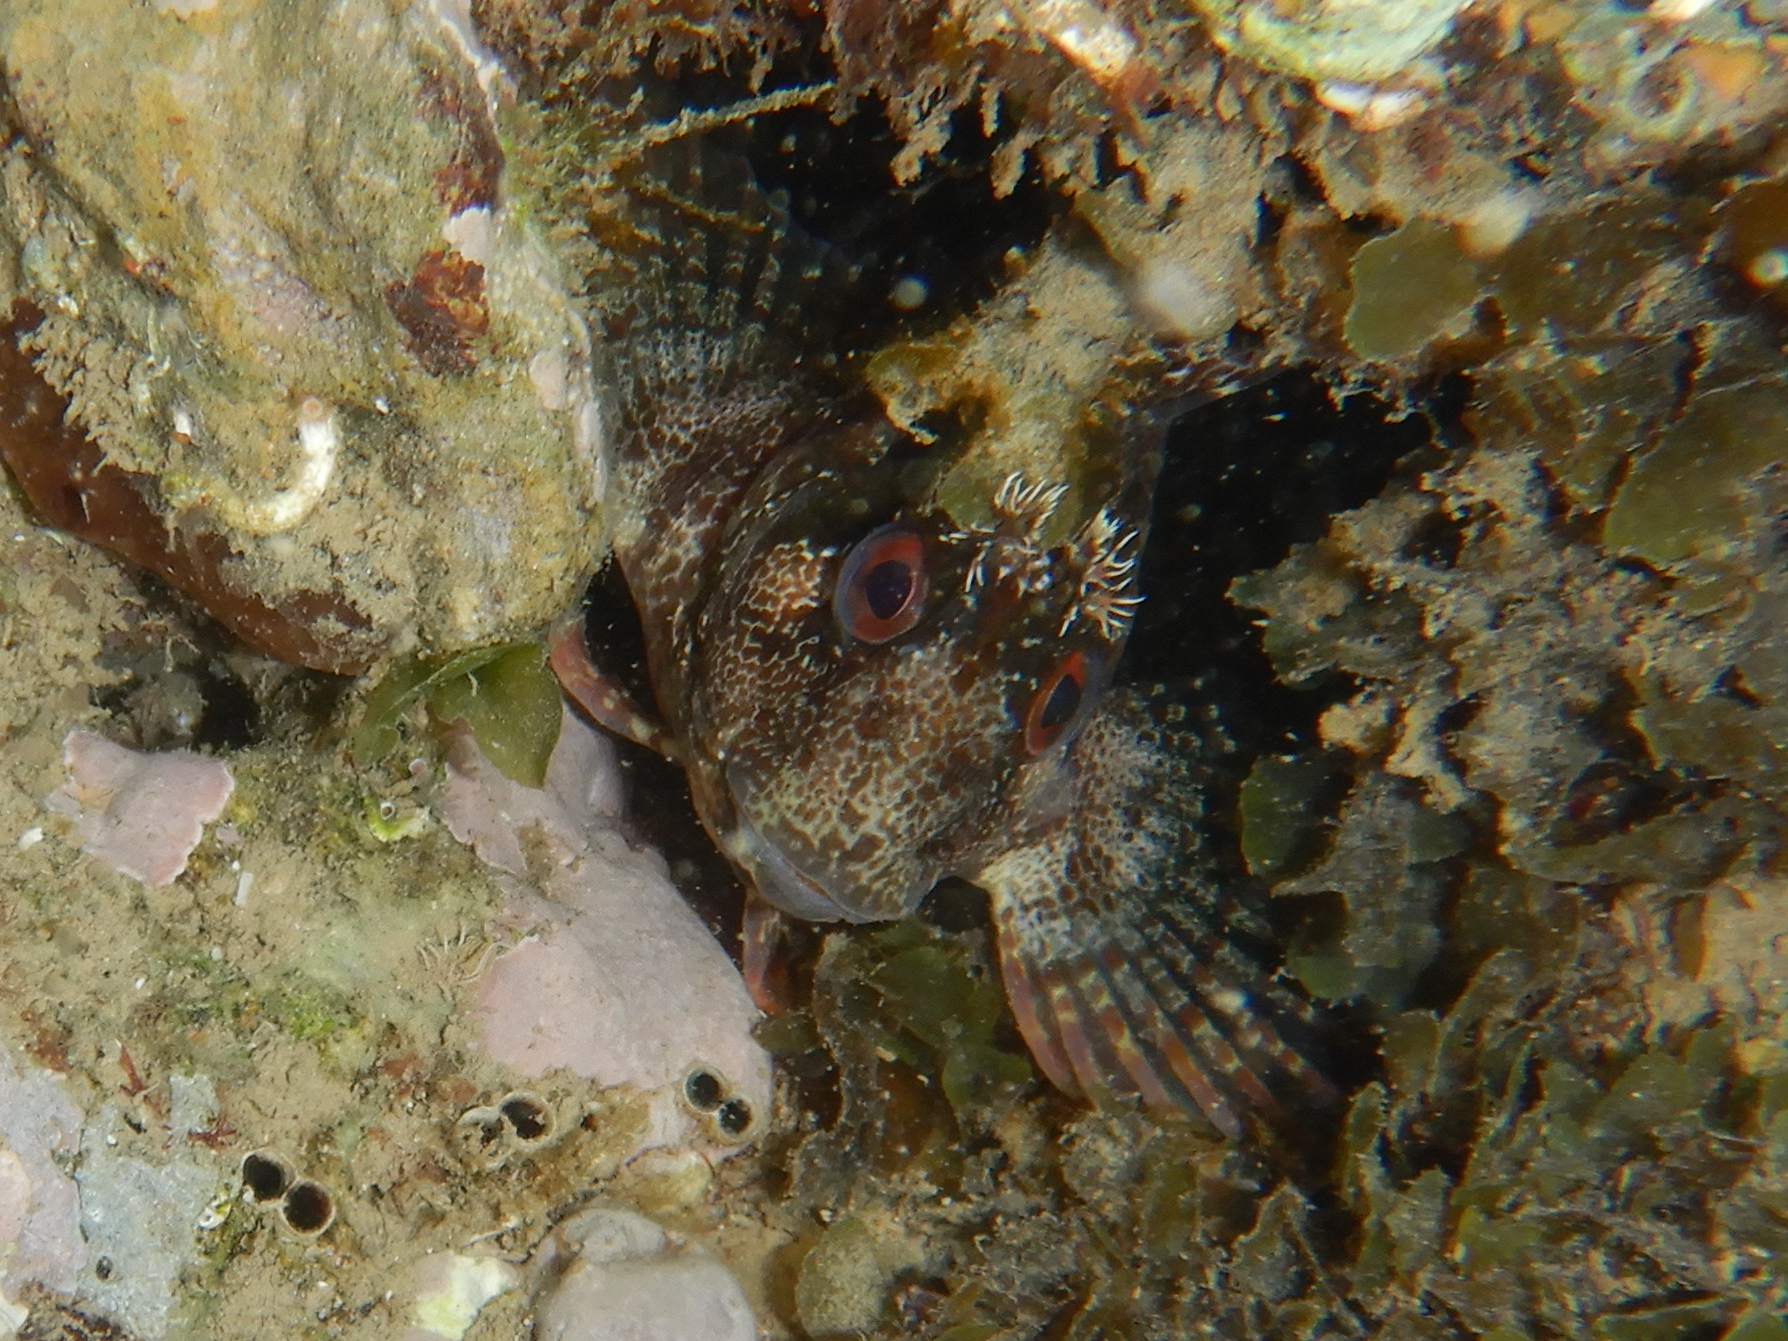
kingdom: Animalia
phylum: Chordata
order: Perciformes
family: Blenniidae
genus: Parablennius
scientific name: Parablennius gattorugine
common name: Tompot blenny
